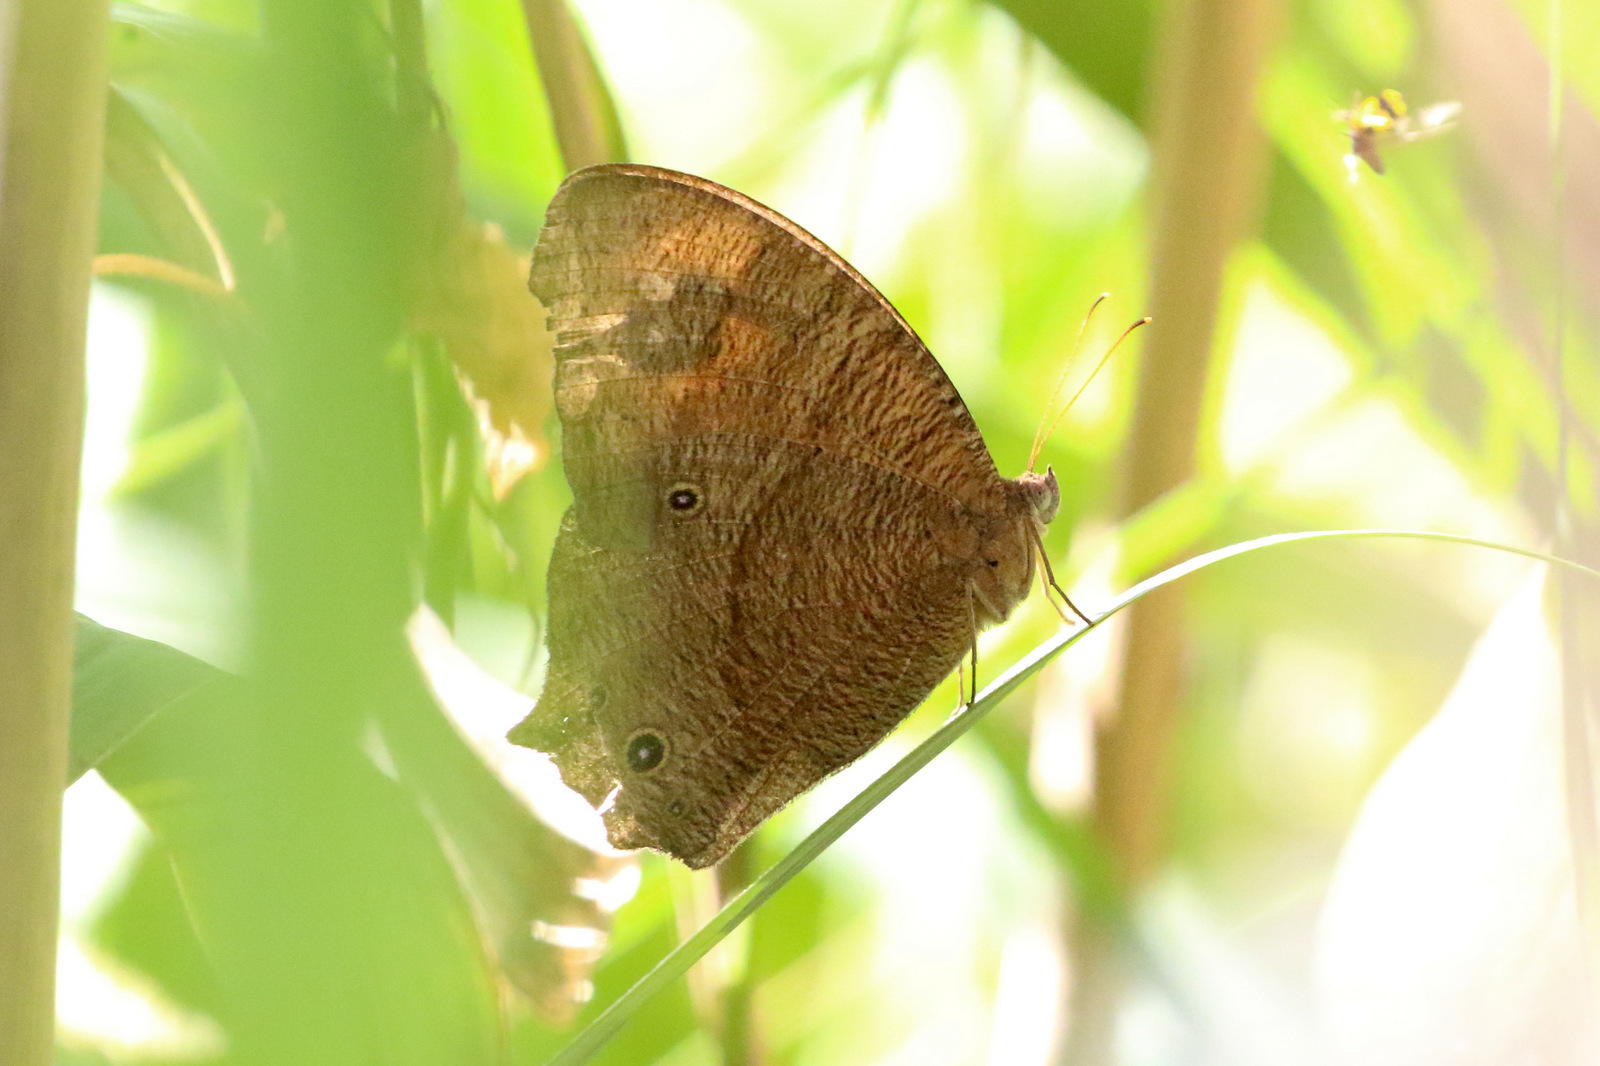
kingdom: Animalia
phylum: Arthropoda
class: Insecta
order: Lepidoptera
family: Nymphalidae
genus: Melanitis
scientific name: Melanitis leda
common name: Twilight brown
